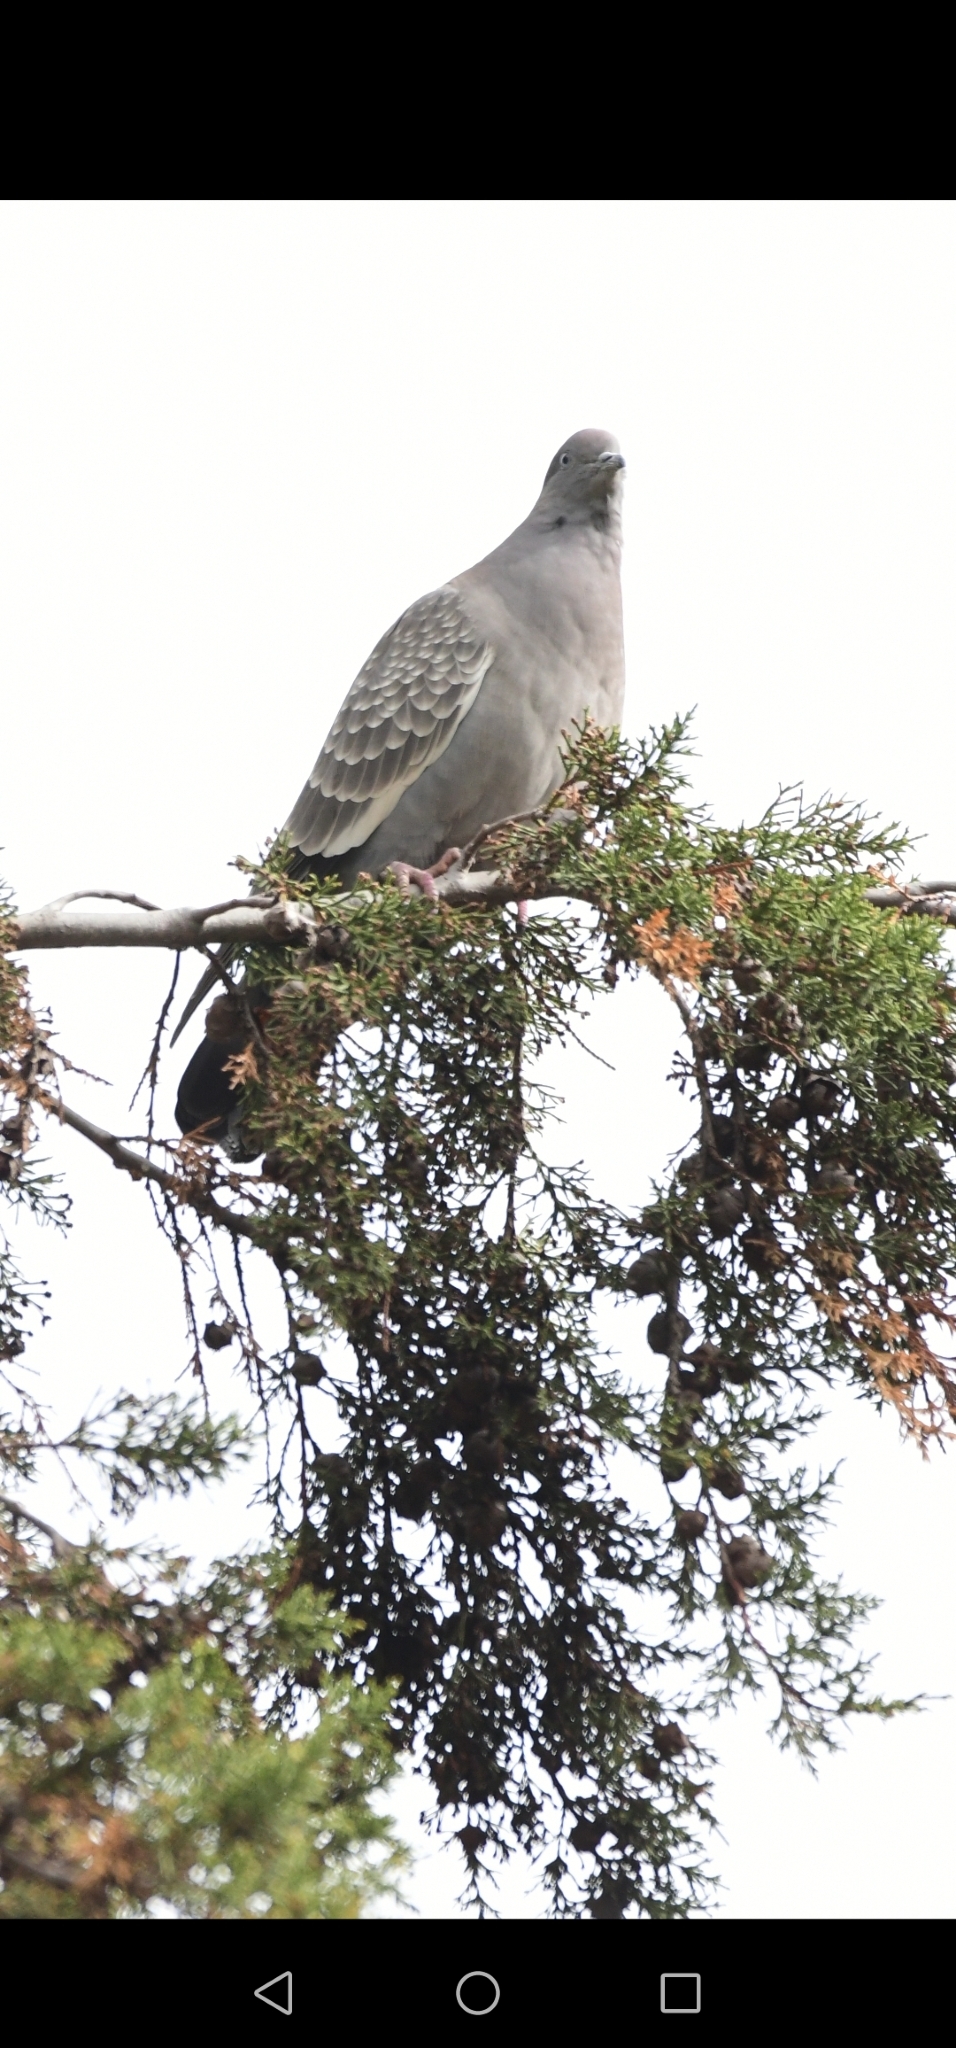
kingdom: Animalia
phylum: Chordata
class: Aves
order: Columbiformes
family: Columbidae
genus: Patagioenas
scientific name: Patagioenas maculosa
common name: Spot-winged pigeon
